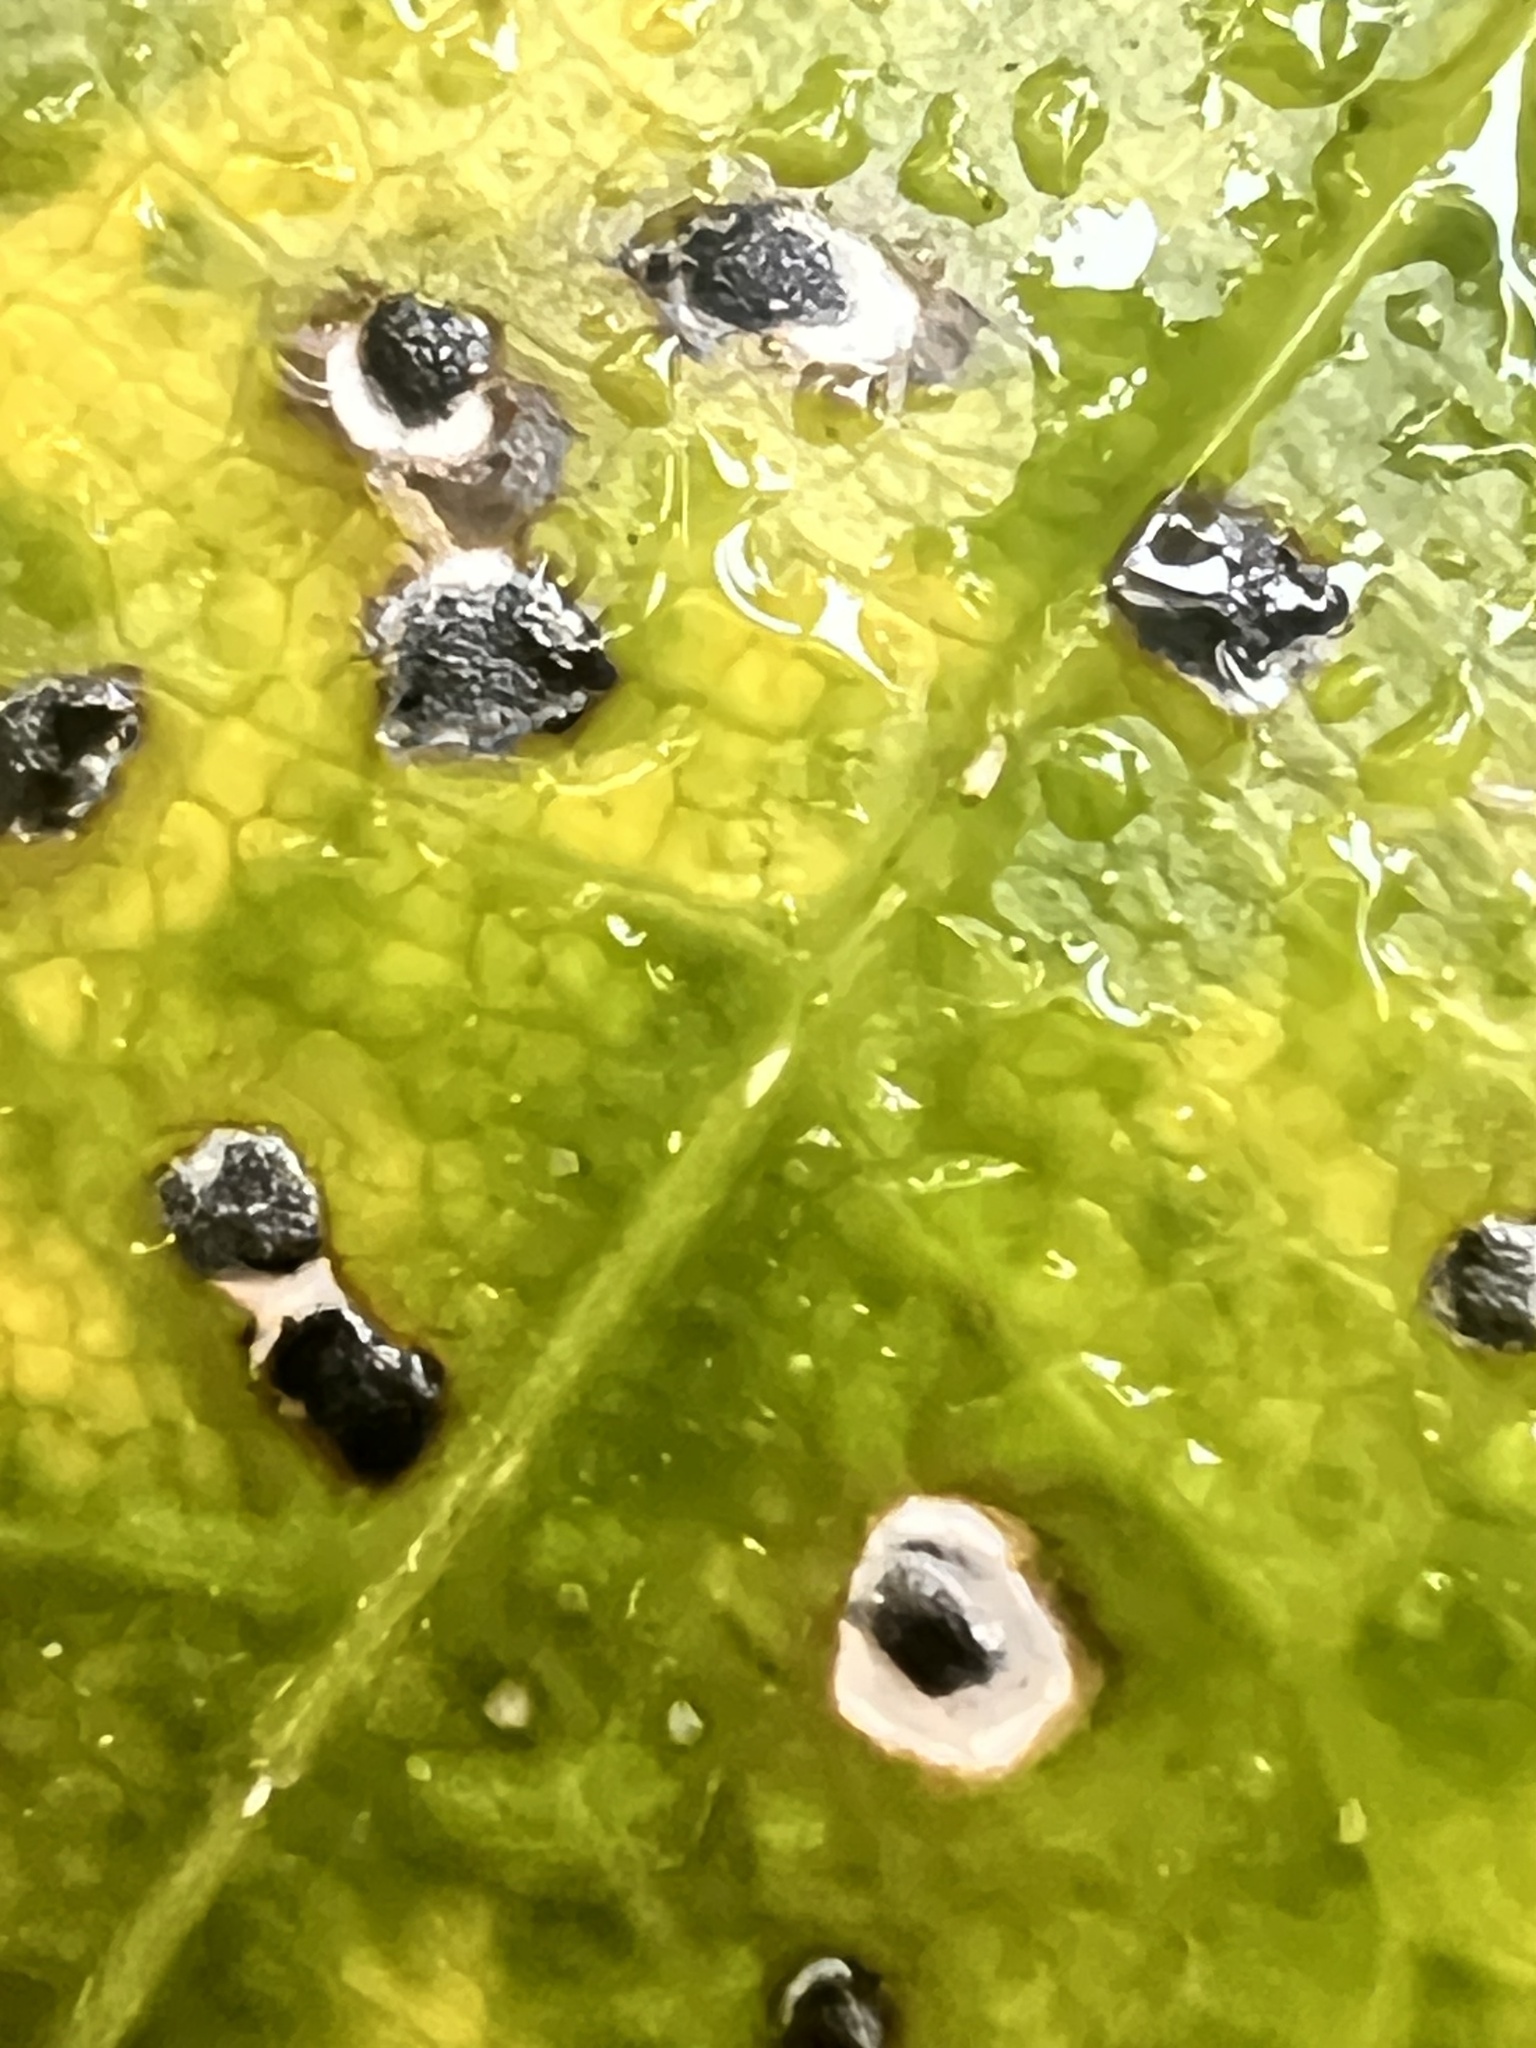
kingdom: Fungi
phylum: Ascomycota
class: Dothideomycetes
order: Botryosphaeriales
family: Planistromellaceae
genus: Diplochorella
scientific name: Diplochorella colensoi
